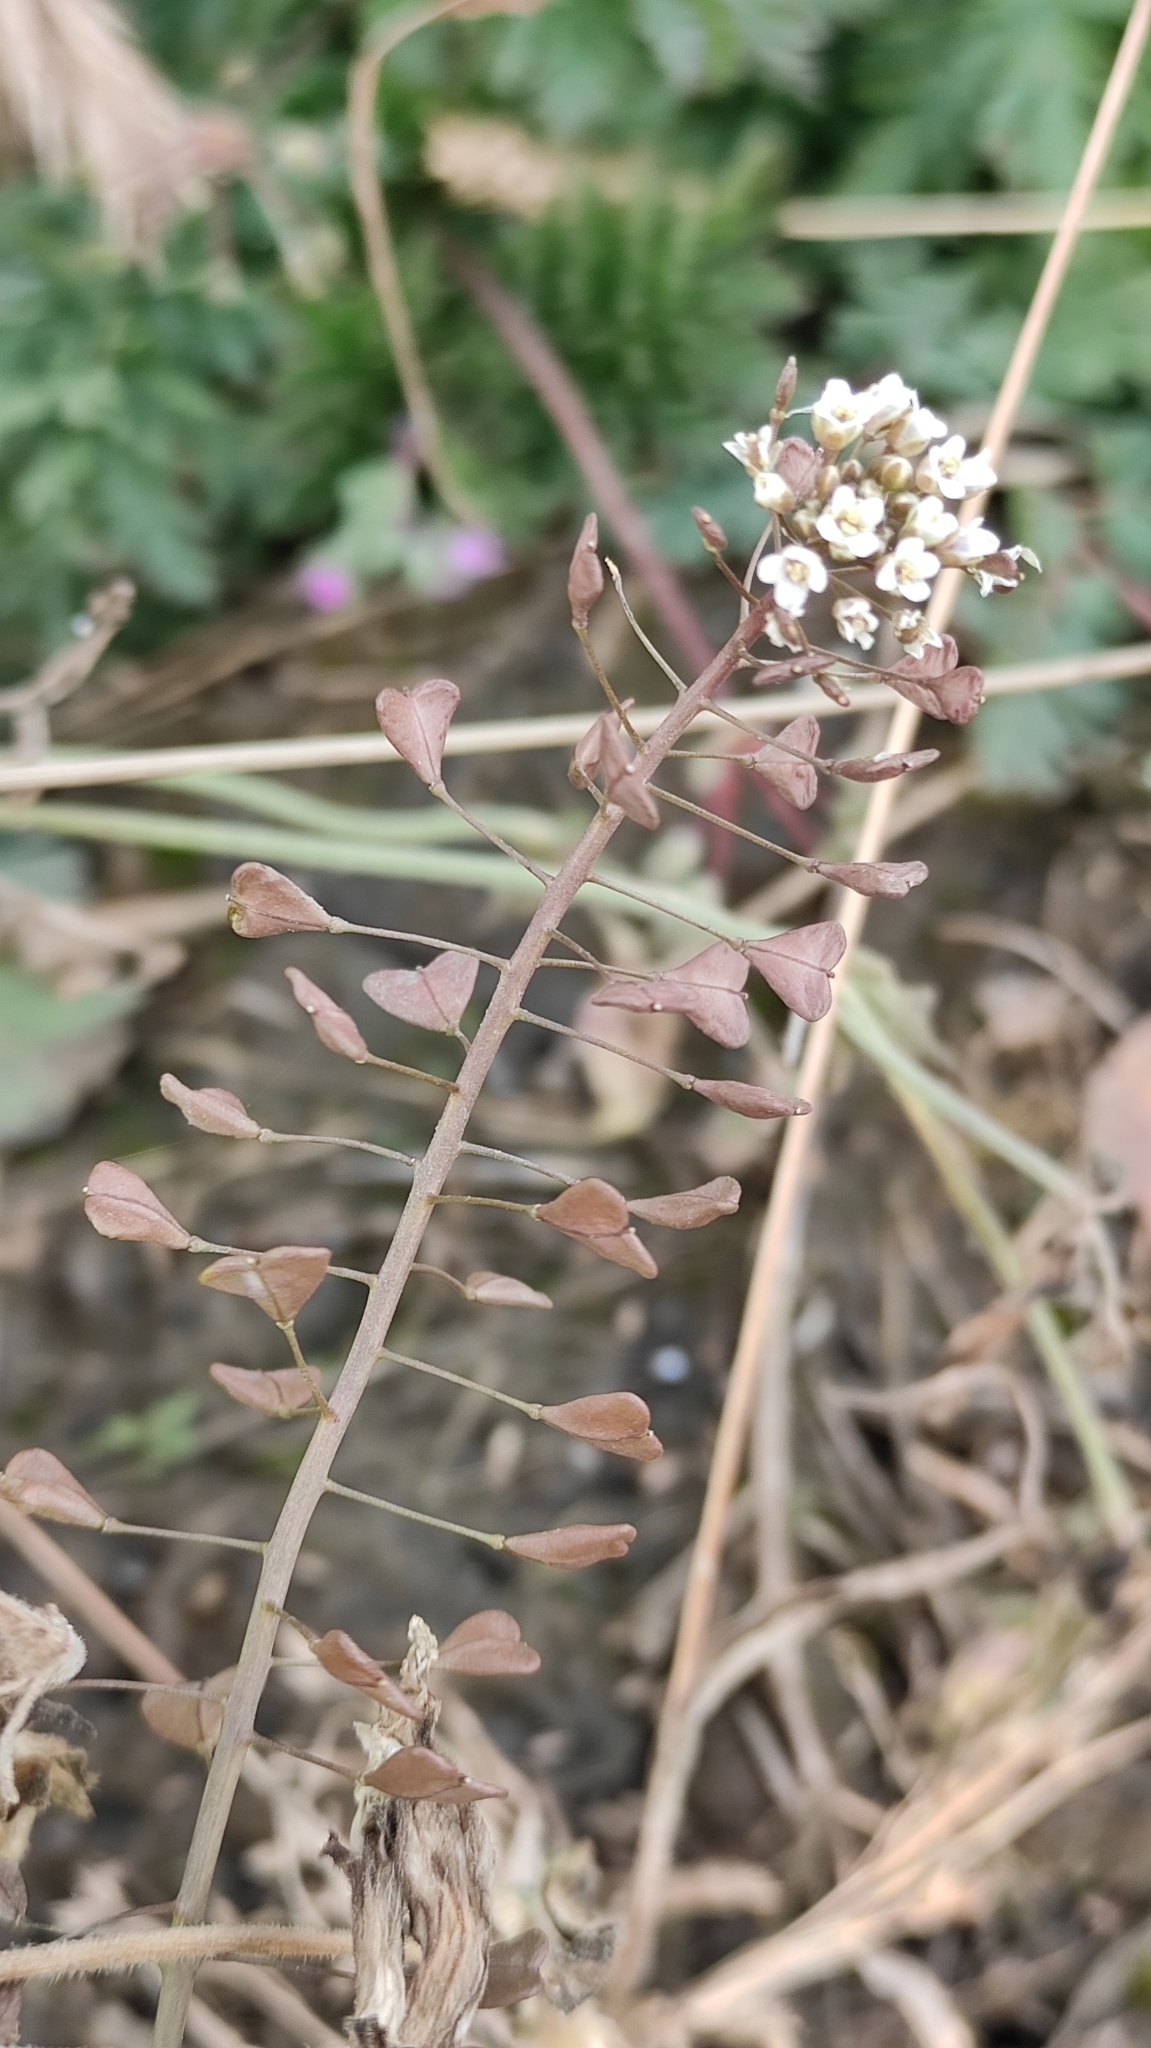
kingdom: Plantae
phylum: Tracheophyta
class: Magnoliopsida
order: Brassicales
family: Brassicaceae
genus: Capsella
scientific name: Capsella bursa-pastoris
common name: Shepherd's purse
